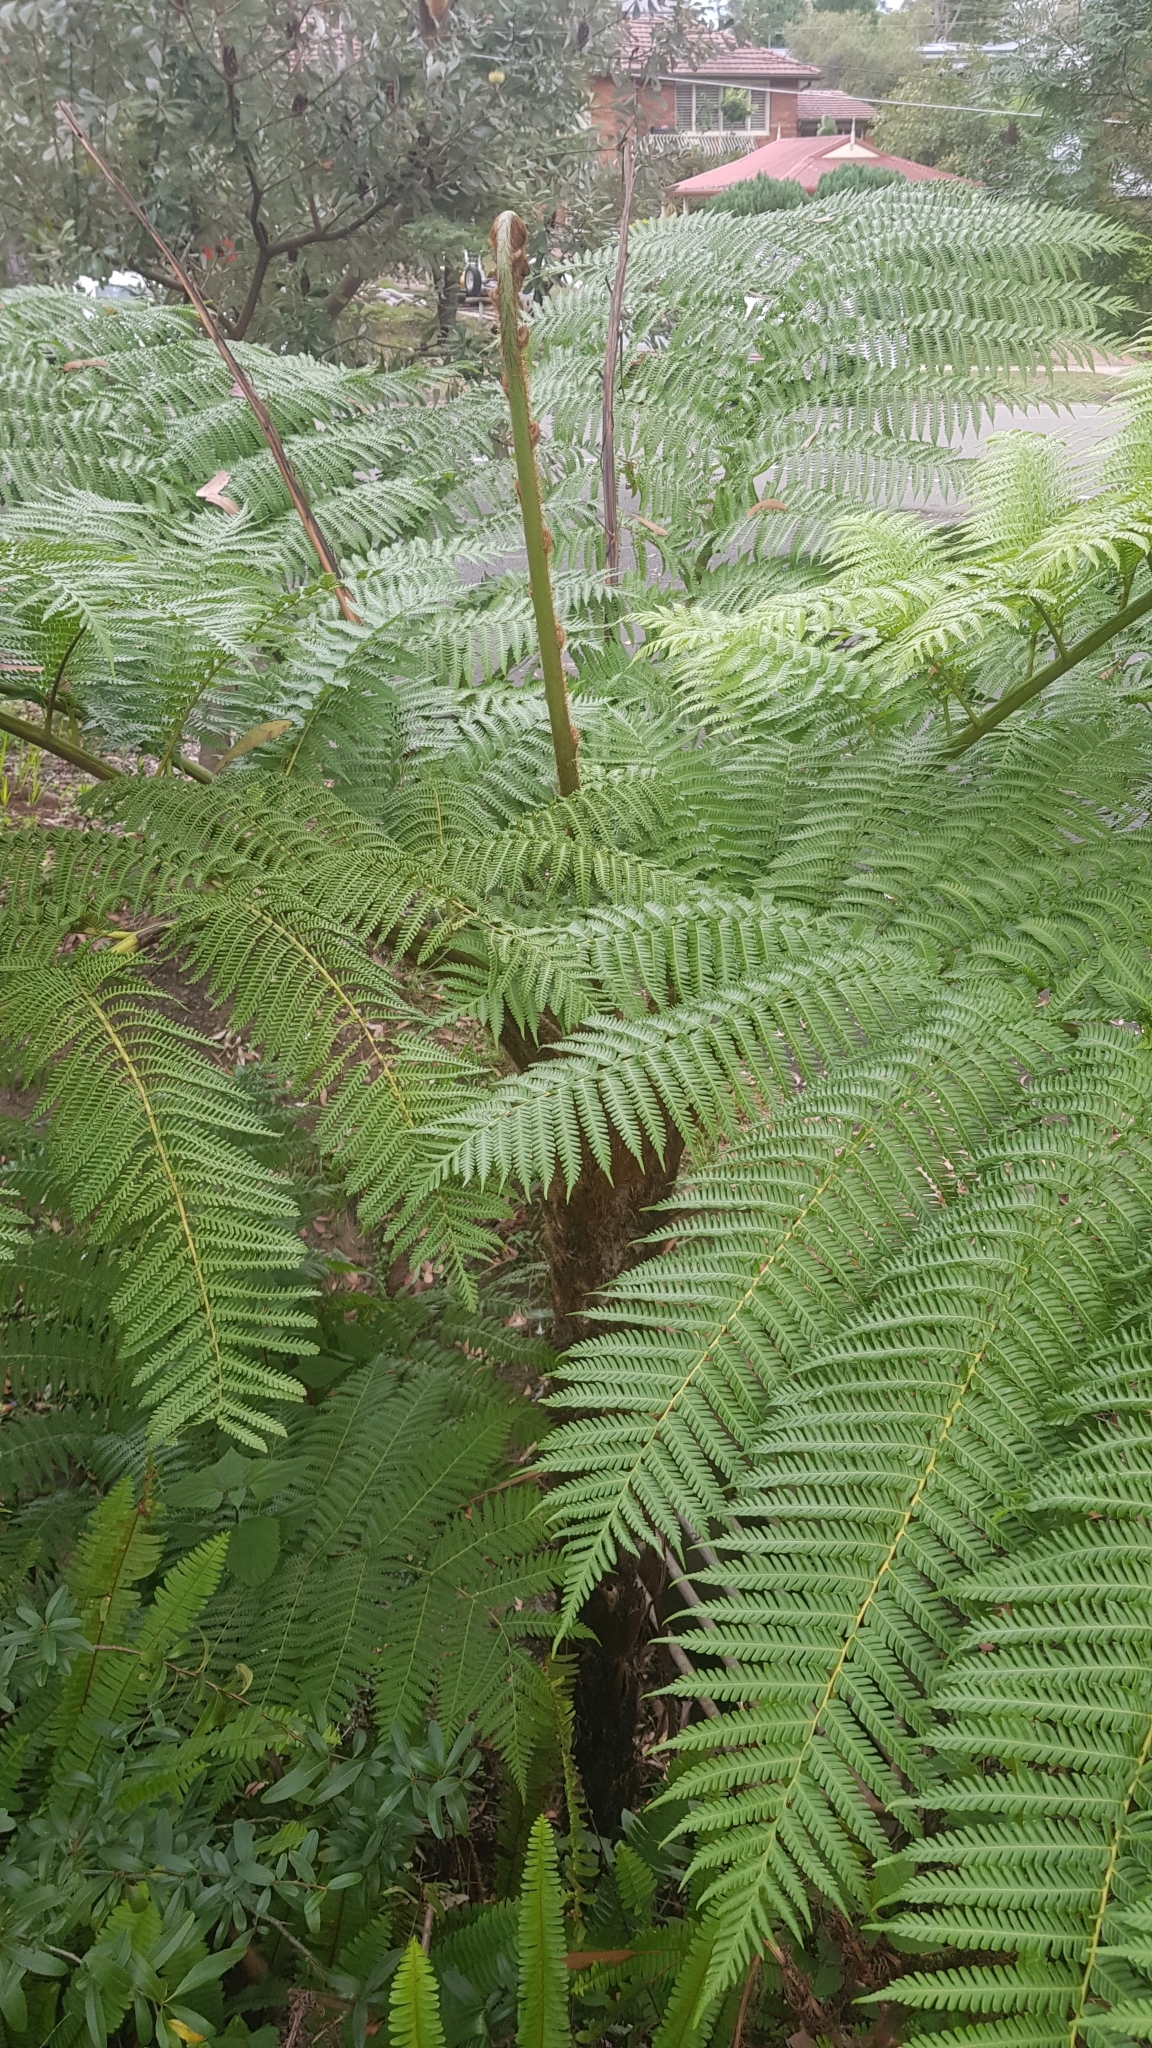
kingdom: Plantae
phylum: Tracheophyta
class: Polypodiopsida
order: Cyatheales
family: Cyatheaceae
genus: Sphaeropteris
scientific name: Sphaeropteris cooperi
